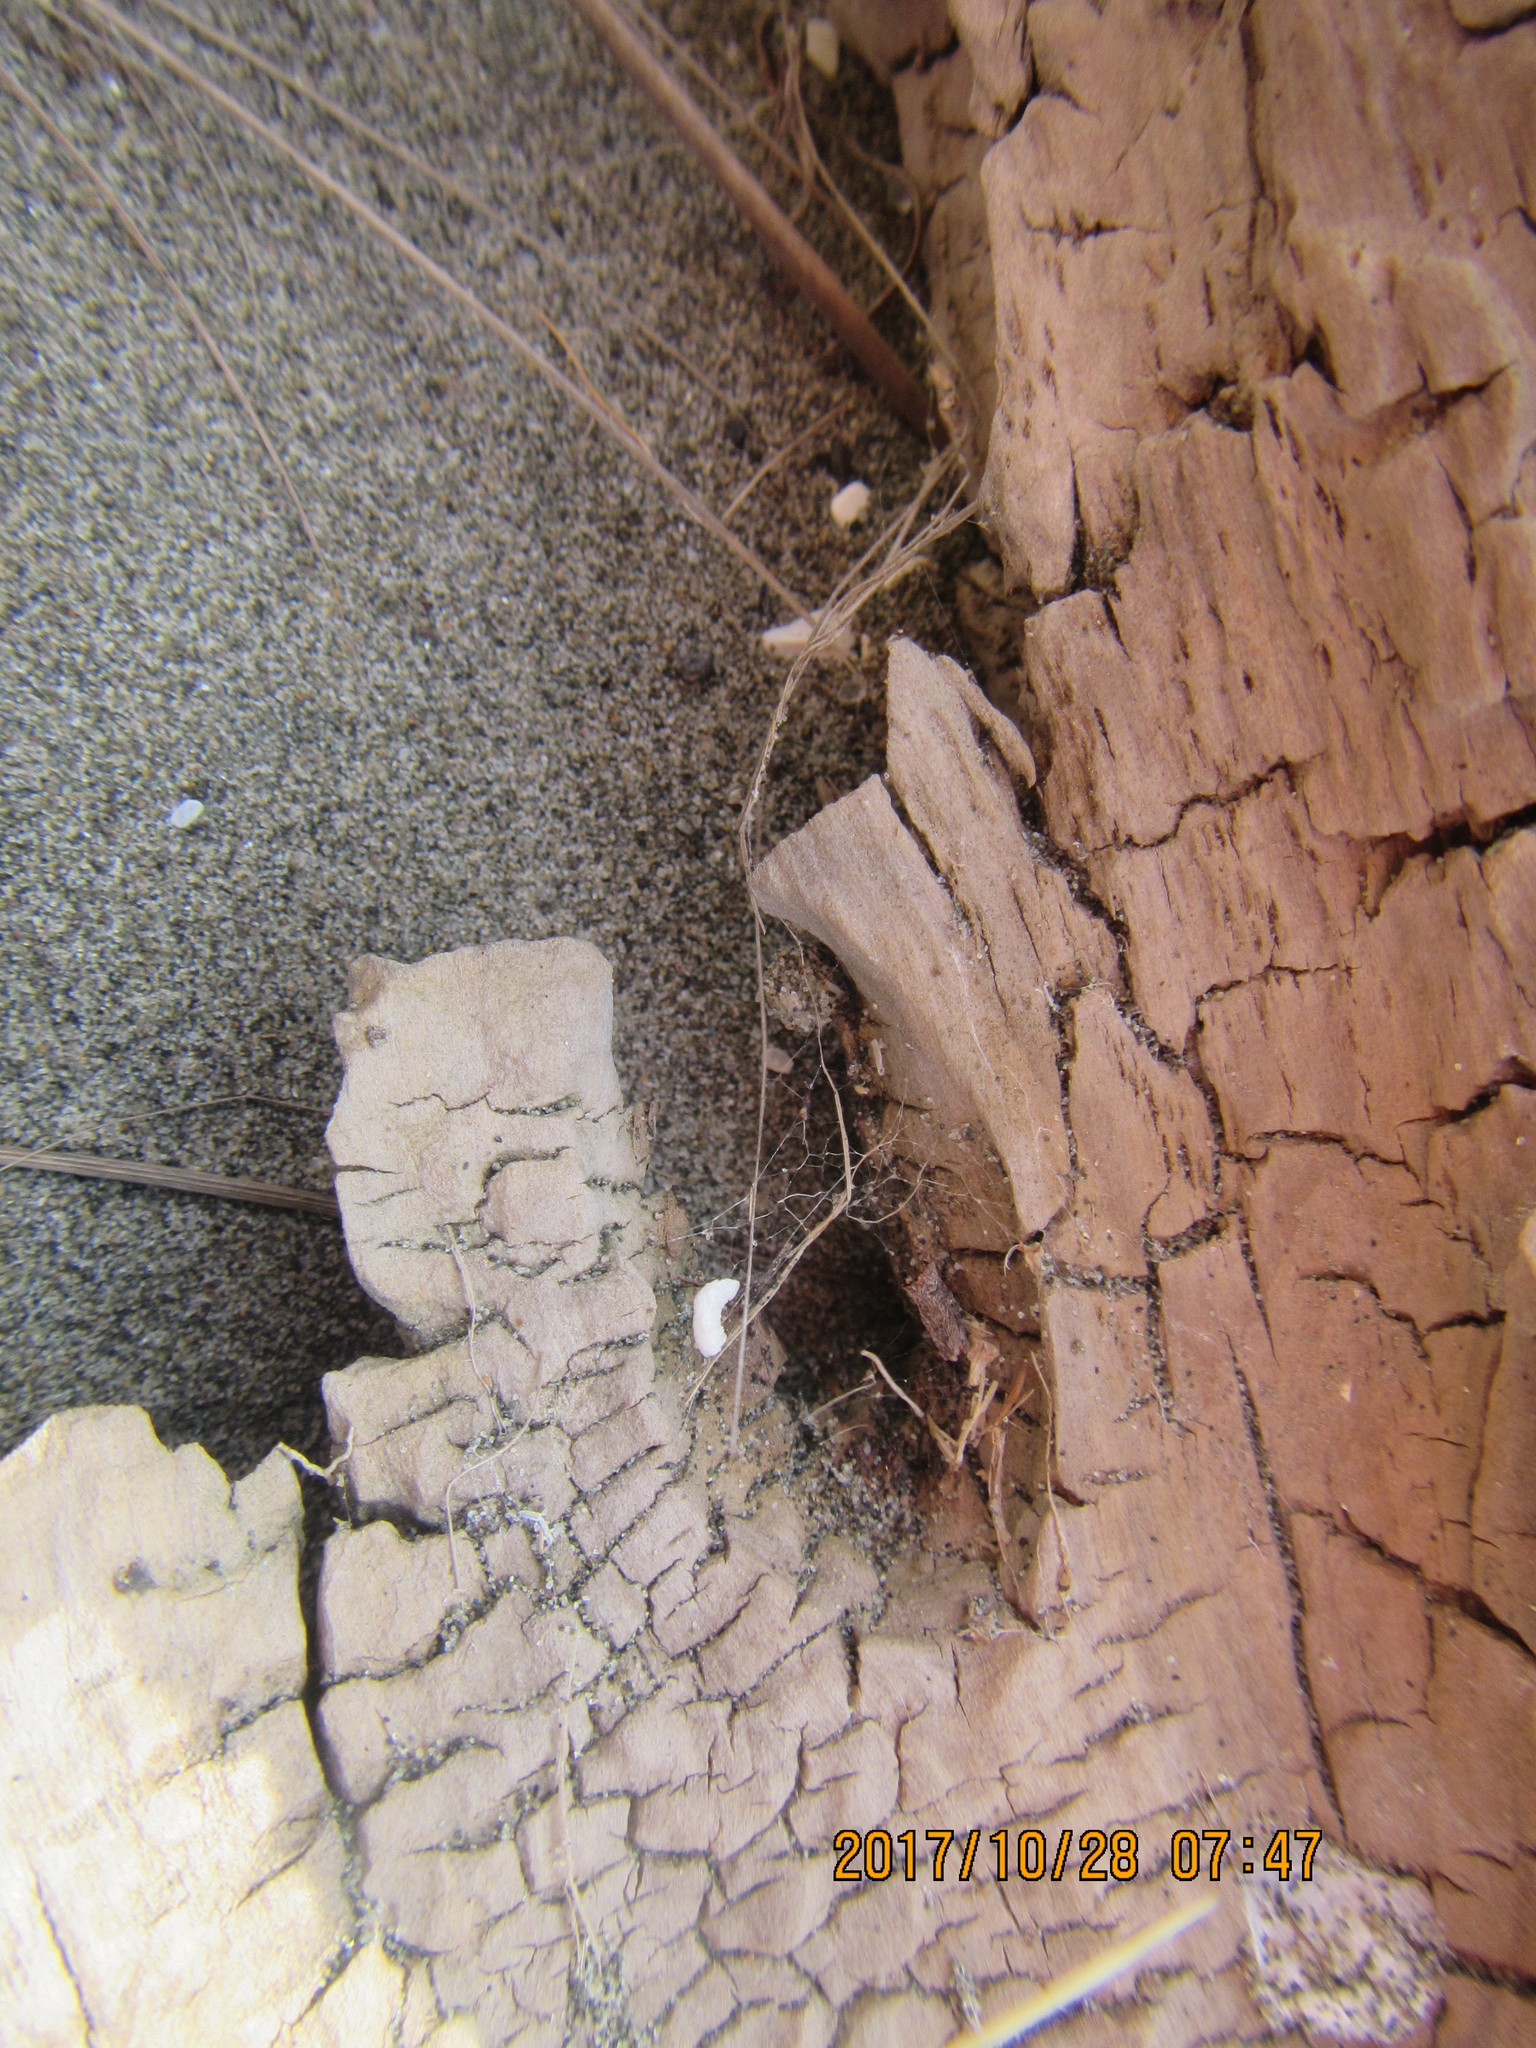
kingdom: Animalia
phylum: Arthropoda
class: Arachnida
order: Araneae
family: Theridiidae
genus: Steatoda
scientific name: Steatoda lepida
